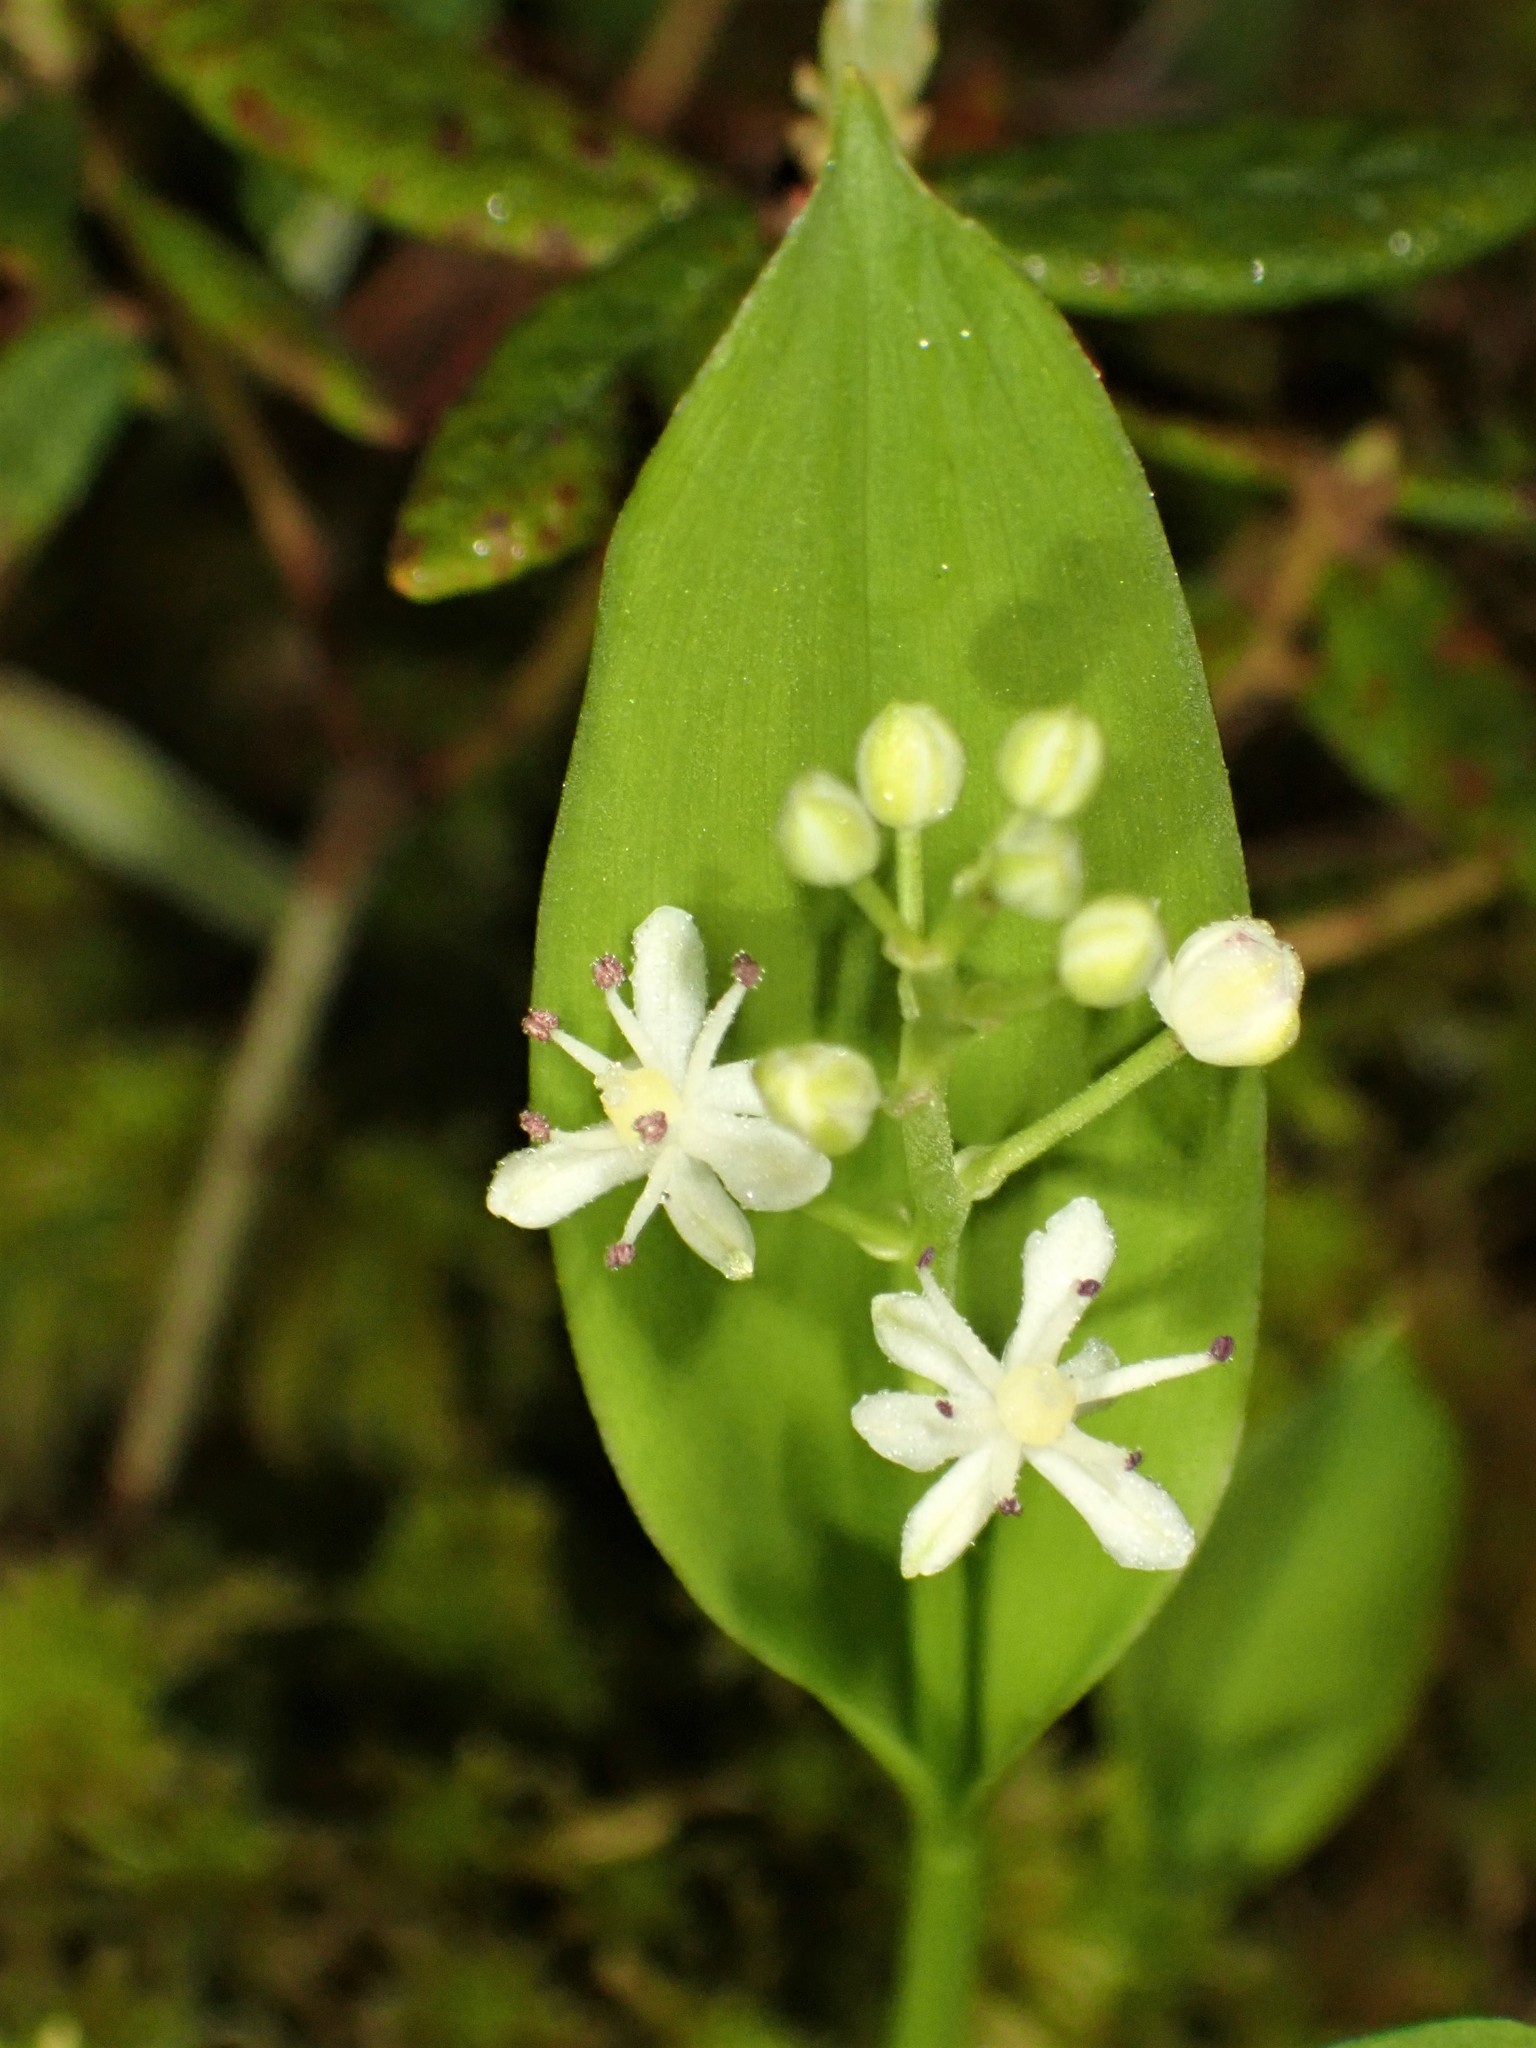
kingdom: Plantae
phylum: Tracheophyta
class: Liliopsida
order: Asparagales
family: Asparagaceae
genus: Maianthemum
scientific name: Maianthemum trifolium
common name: Swamp false solomon's seal
